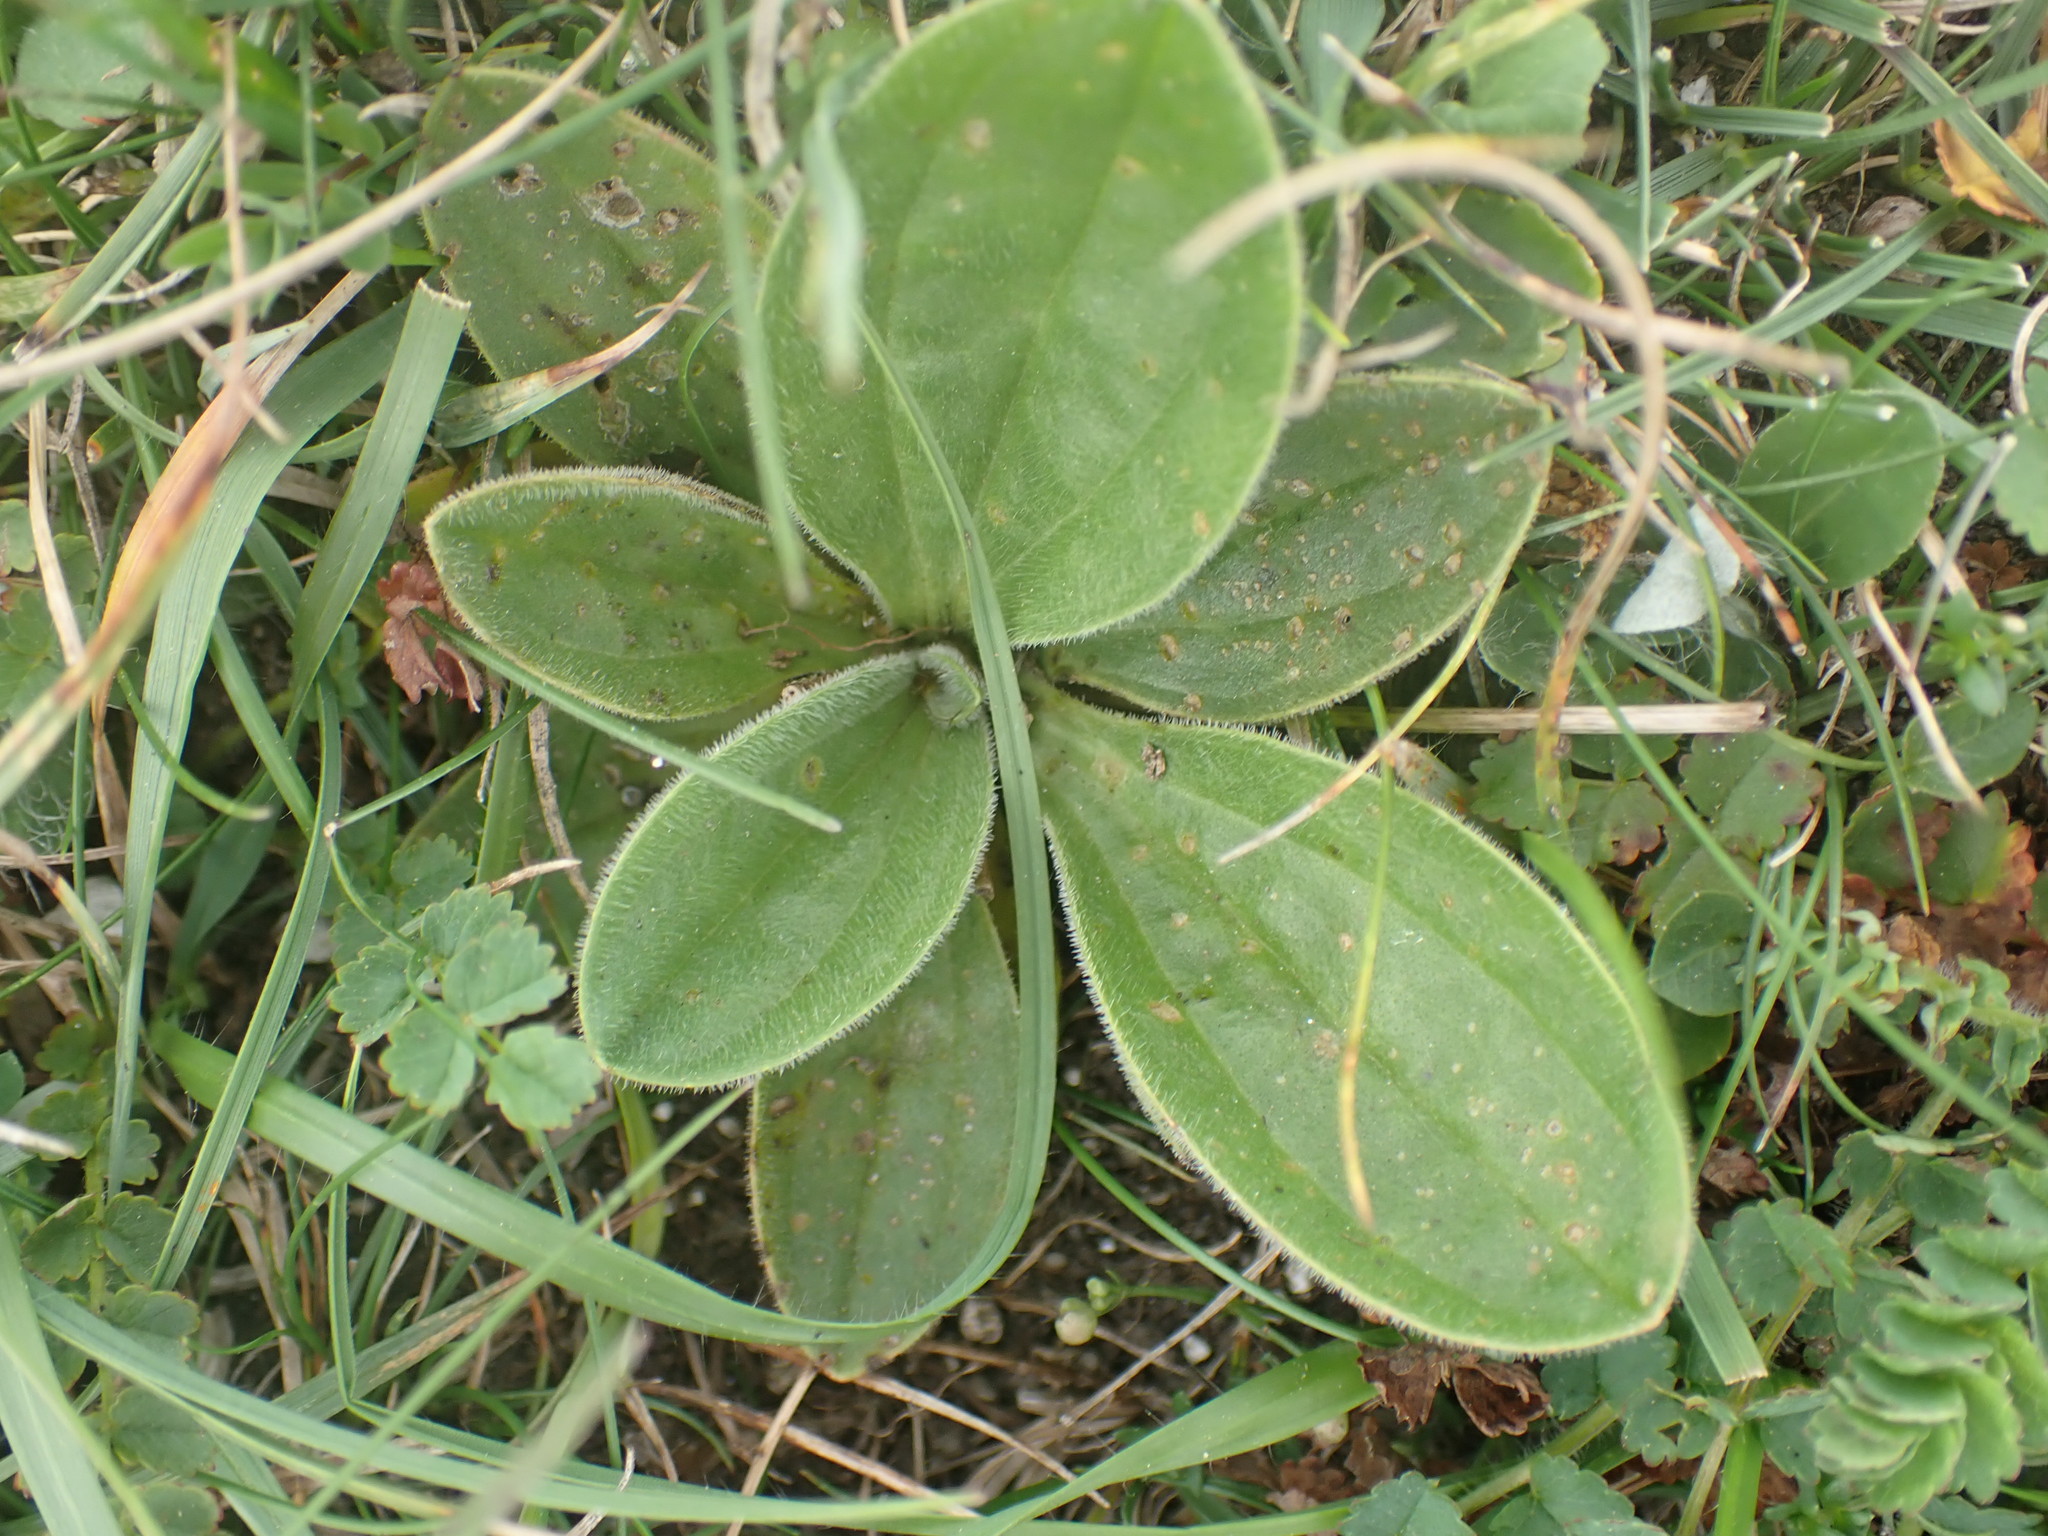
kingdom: Plantae
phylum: Tracheophyta
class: Magnoliopsida
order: Lamiales
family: Plantaginaceae
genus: Plantago
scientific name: Plantago media
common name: Hoary plantain
